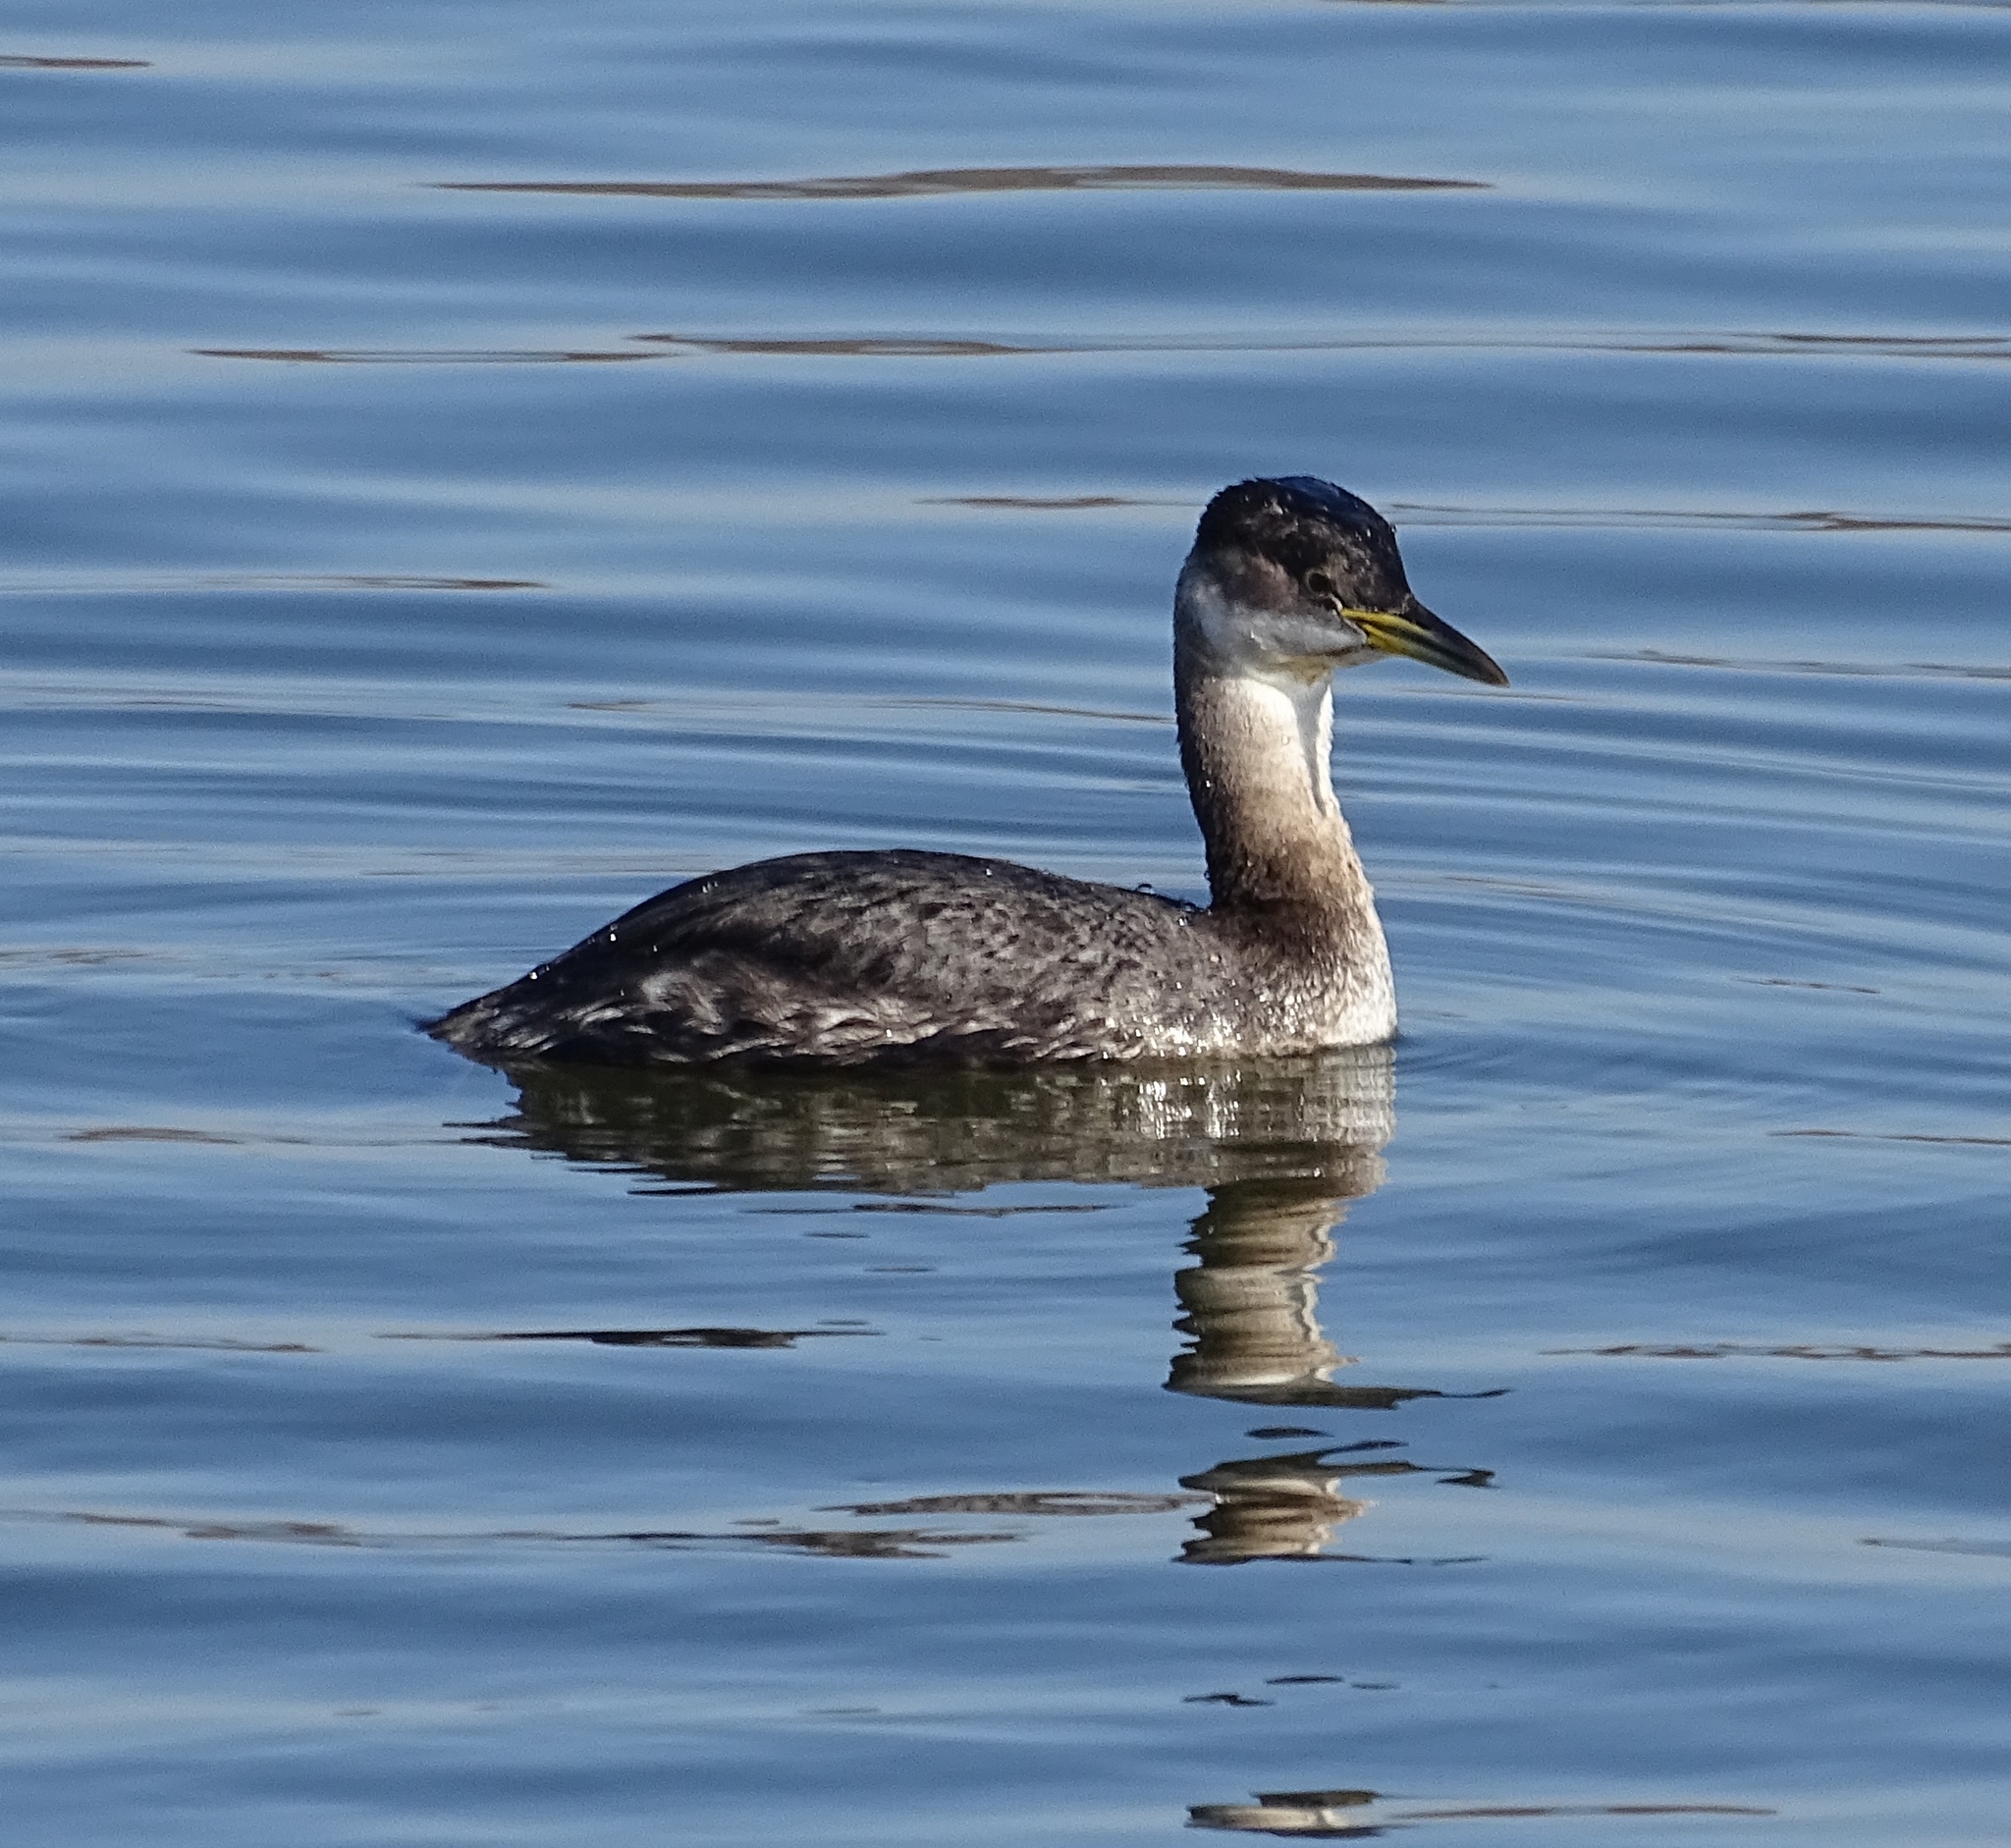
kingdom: Animalia
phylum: Chordata
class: Aves
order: Podicipediformes
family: Podicipedidae
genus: Podiceps
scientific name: Podiceps grisegena
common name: Red-necked grebe
